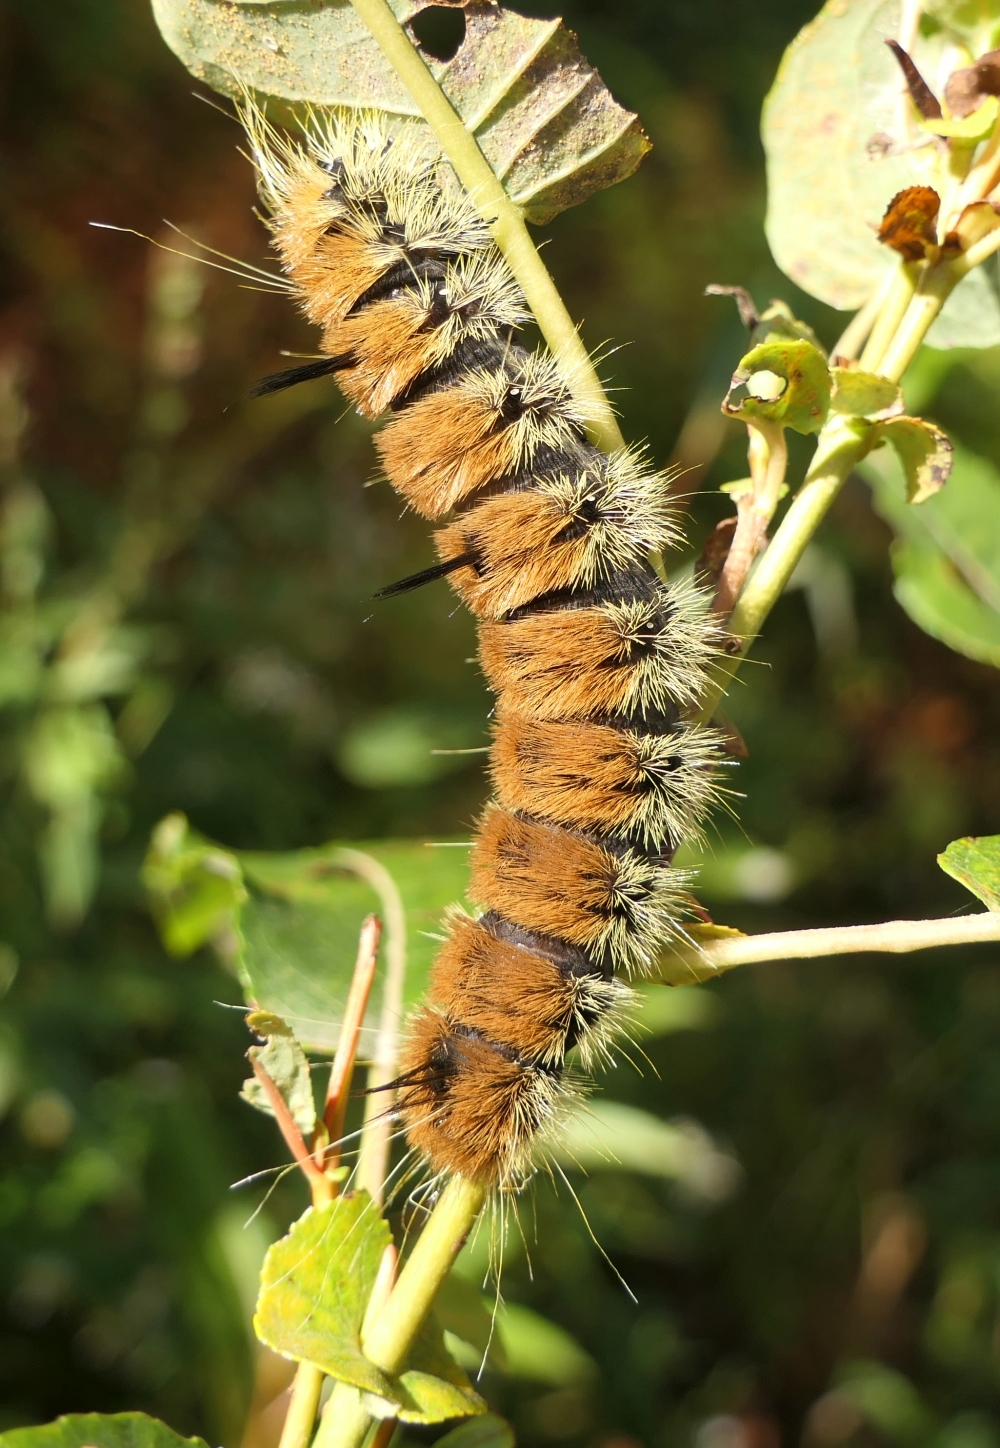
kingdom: Animalia
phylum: Arthropoda
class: Insecta
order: Lepidoptera
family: Noctuidae
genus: Acronicta
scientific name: Acronicta insita
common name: Large gray dagger
